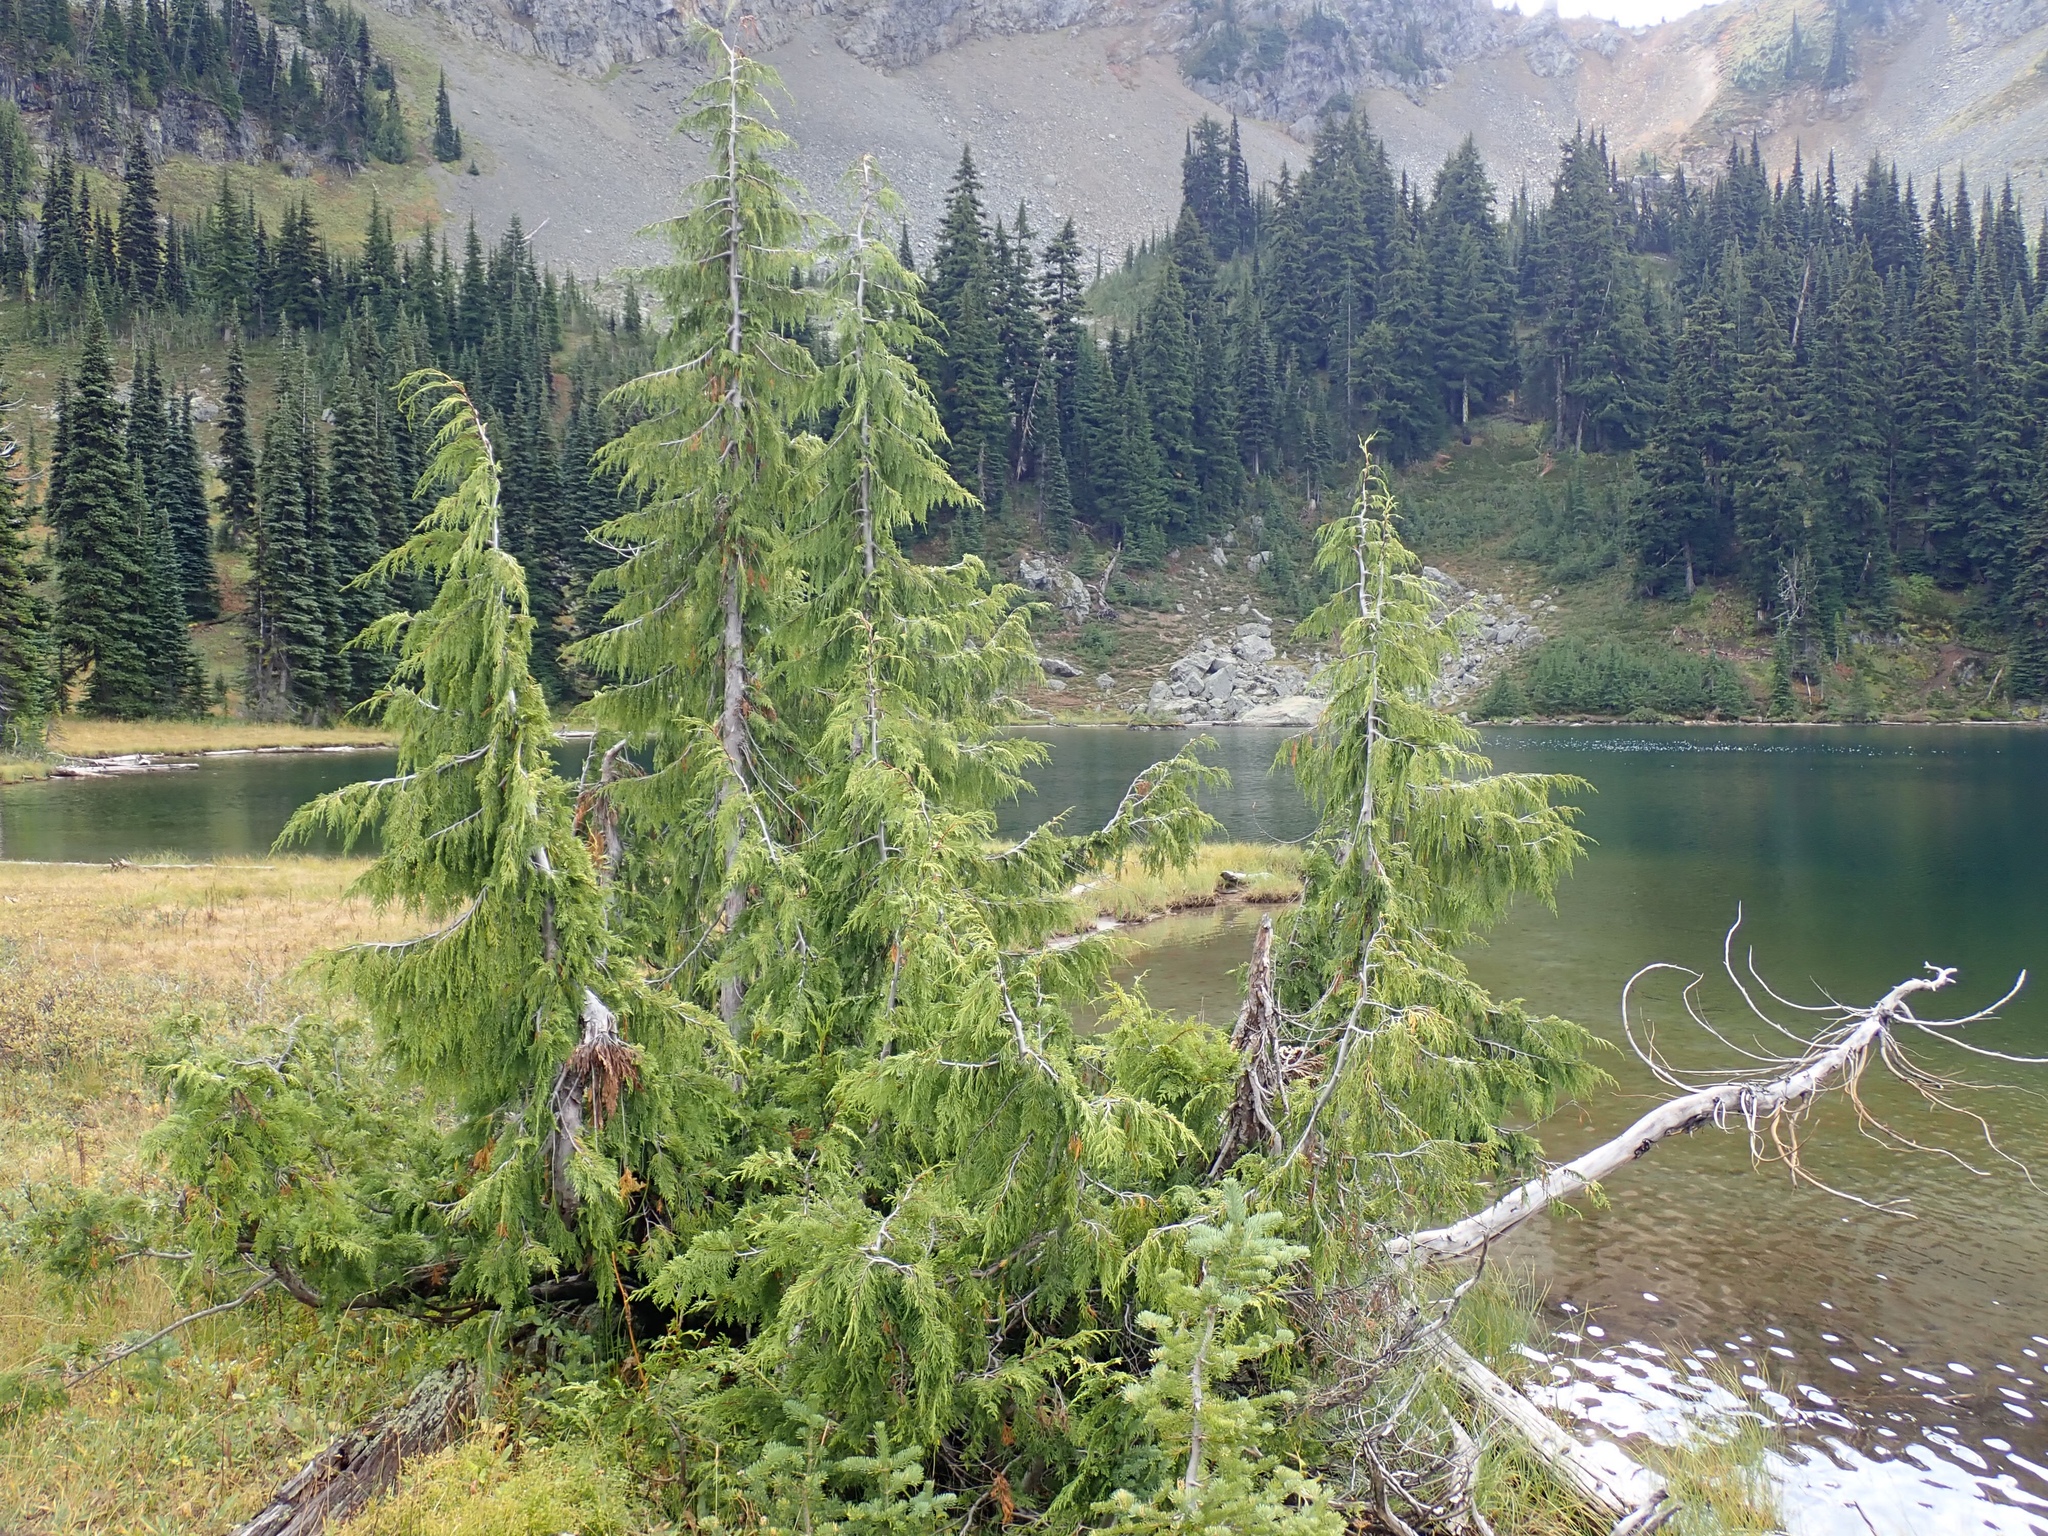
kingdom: Plantae
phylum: Tracheophyta
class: Pinopsida
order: Pinales
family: Cupressaceae
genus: Xanthocyparis
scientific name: Xanthocyparis nootkatensis
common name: Nootka cypress
